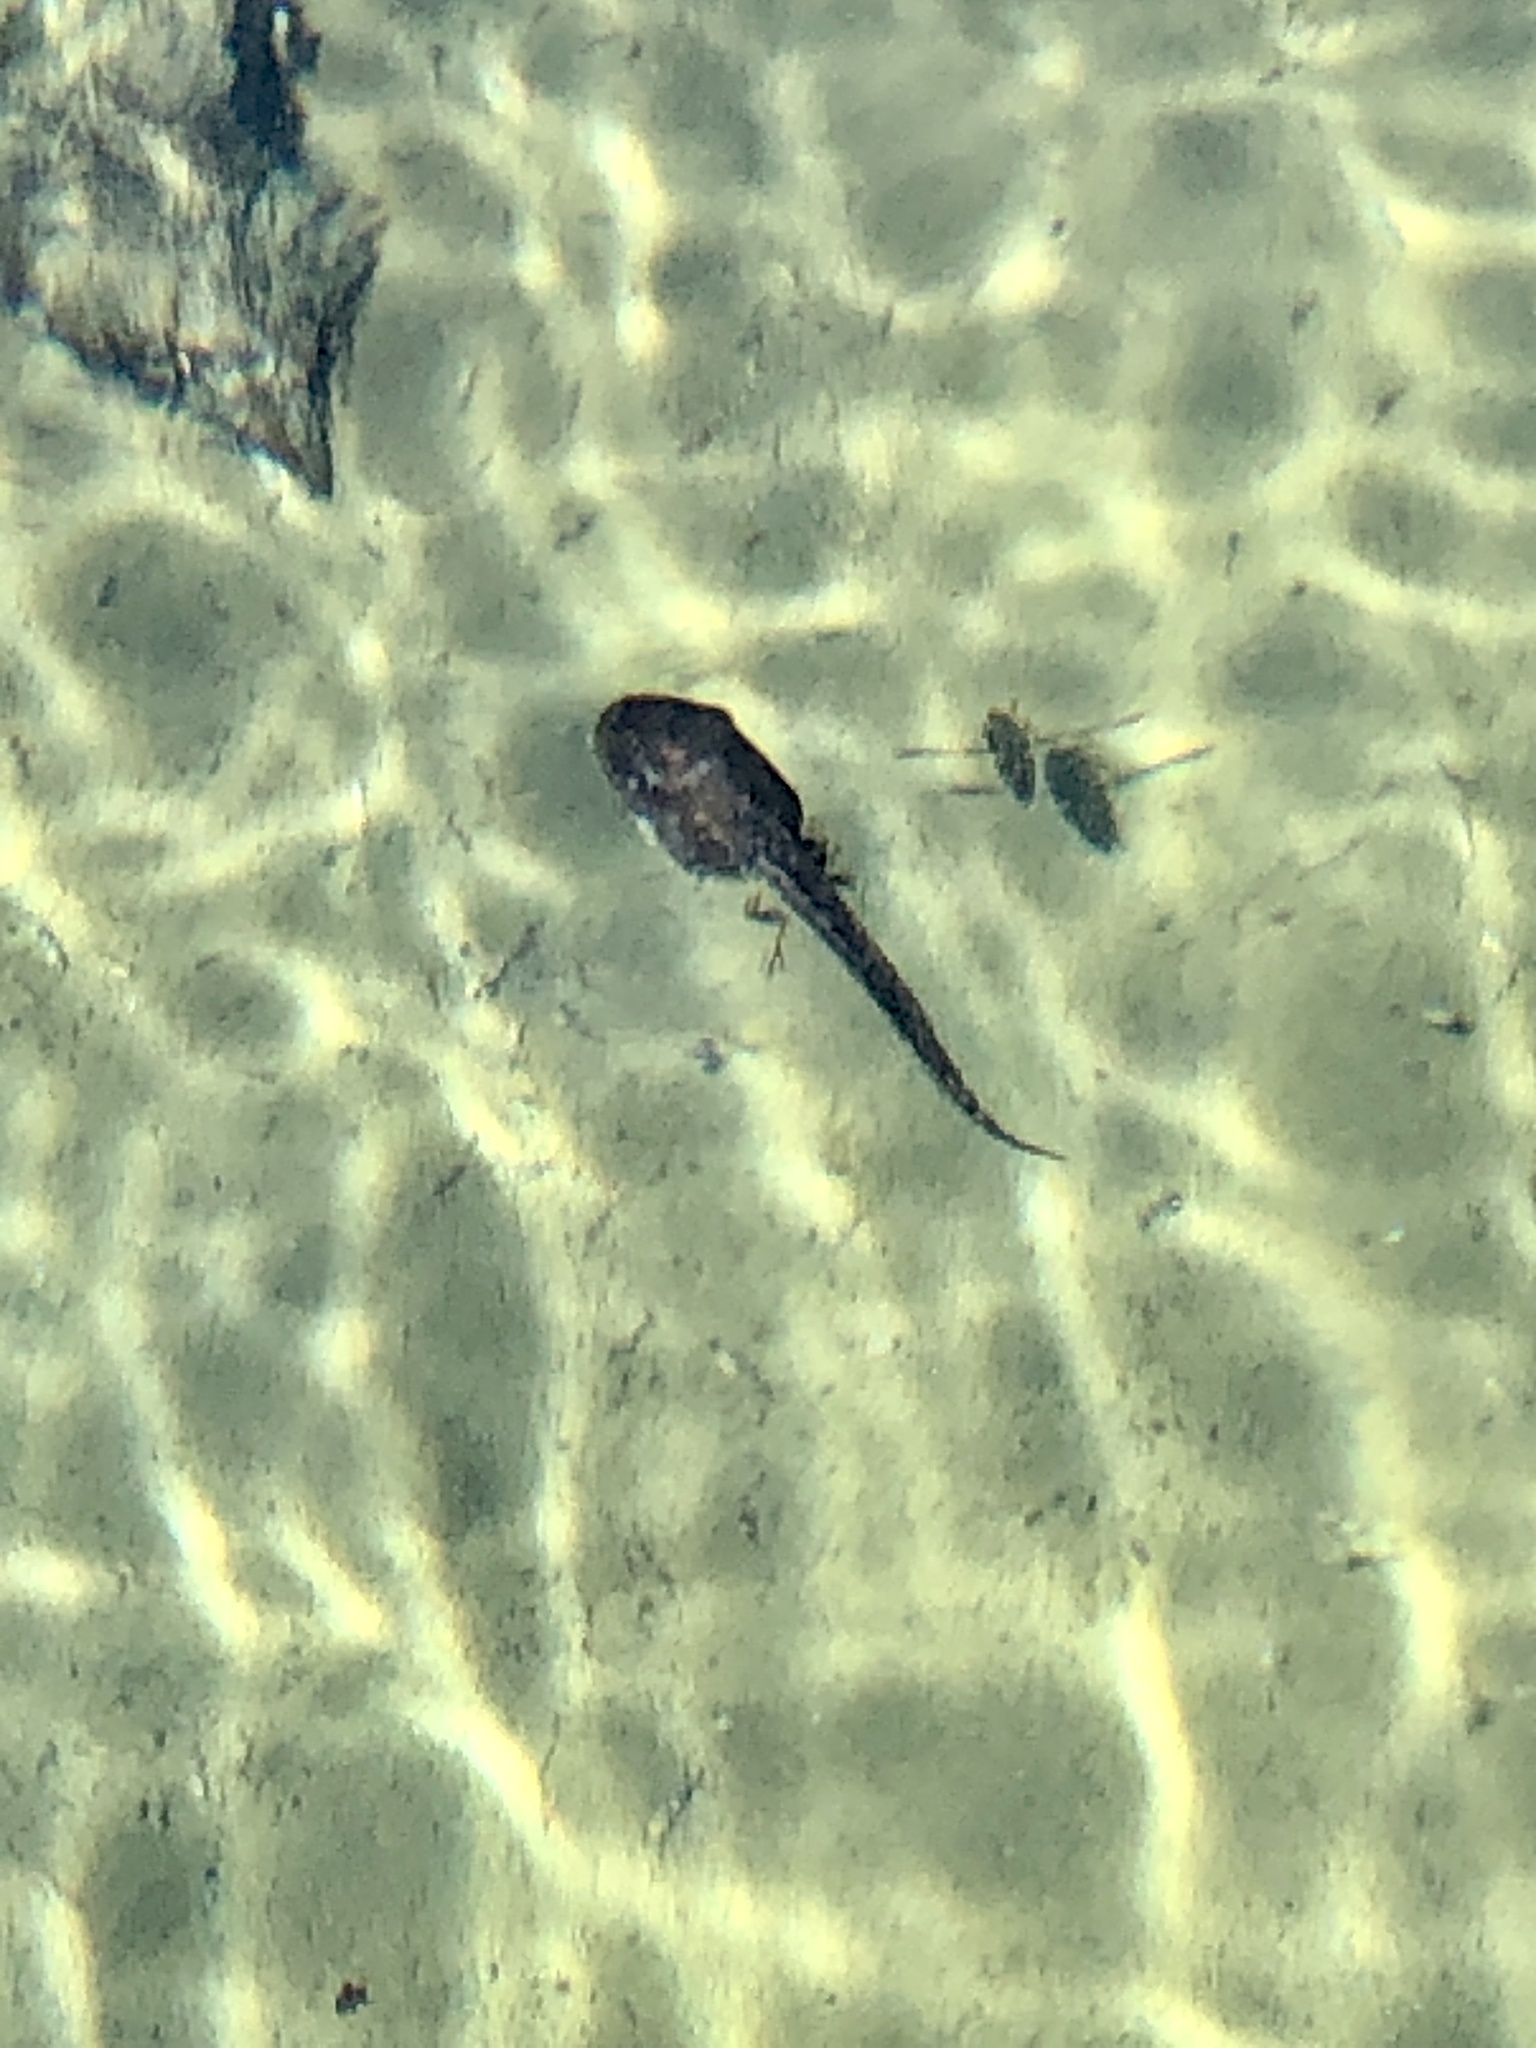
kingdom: Animalia
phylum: Chordata
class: Amphibia
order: Anura
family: Hylidae
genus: Pseudacris
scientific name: Pseudacris regilla
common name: Pacific chorus frog
